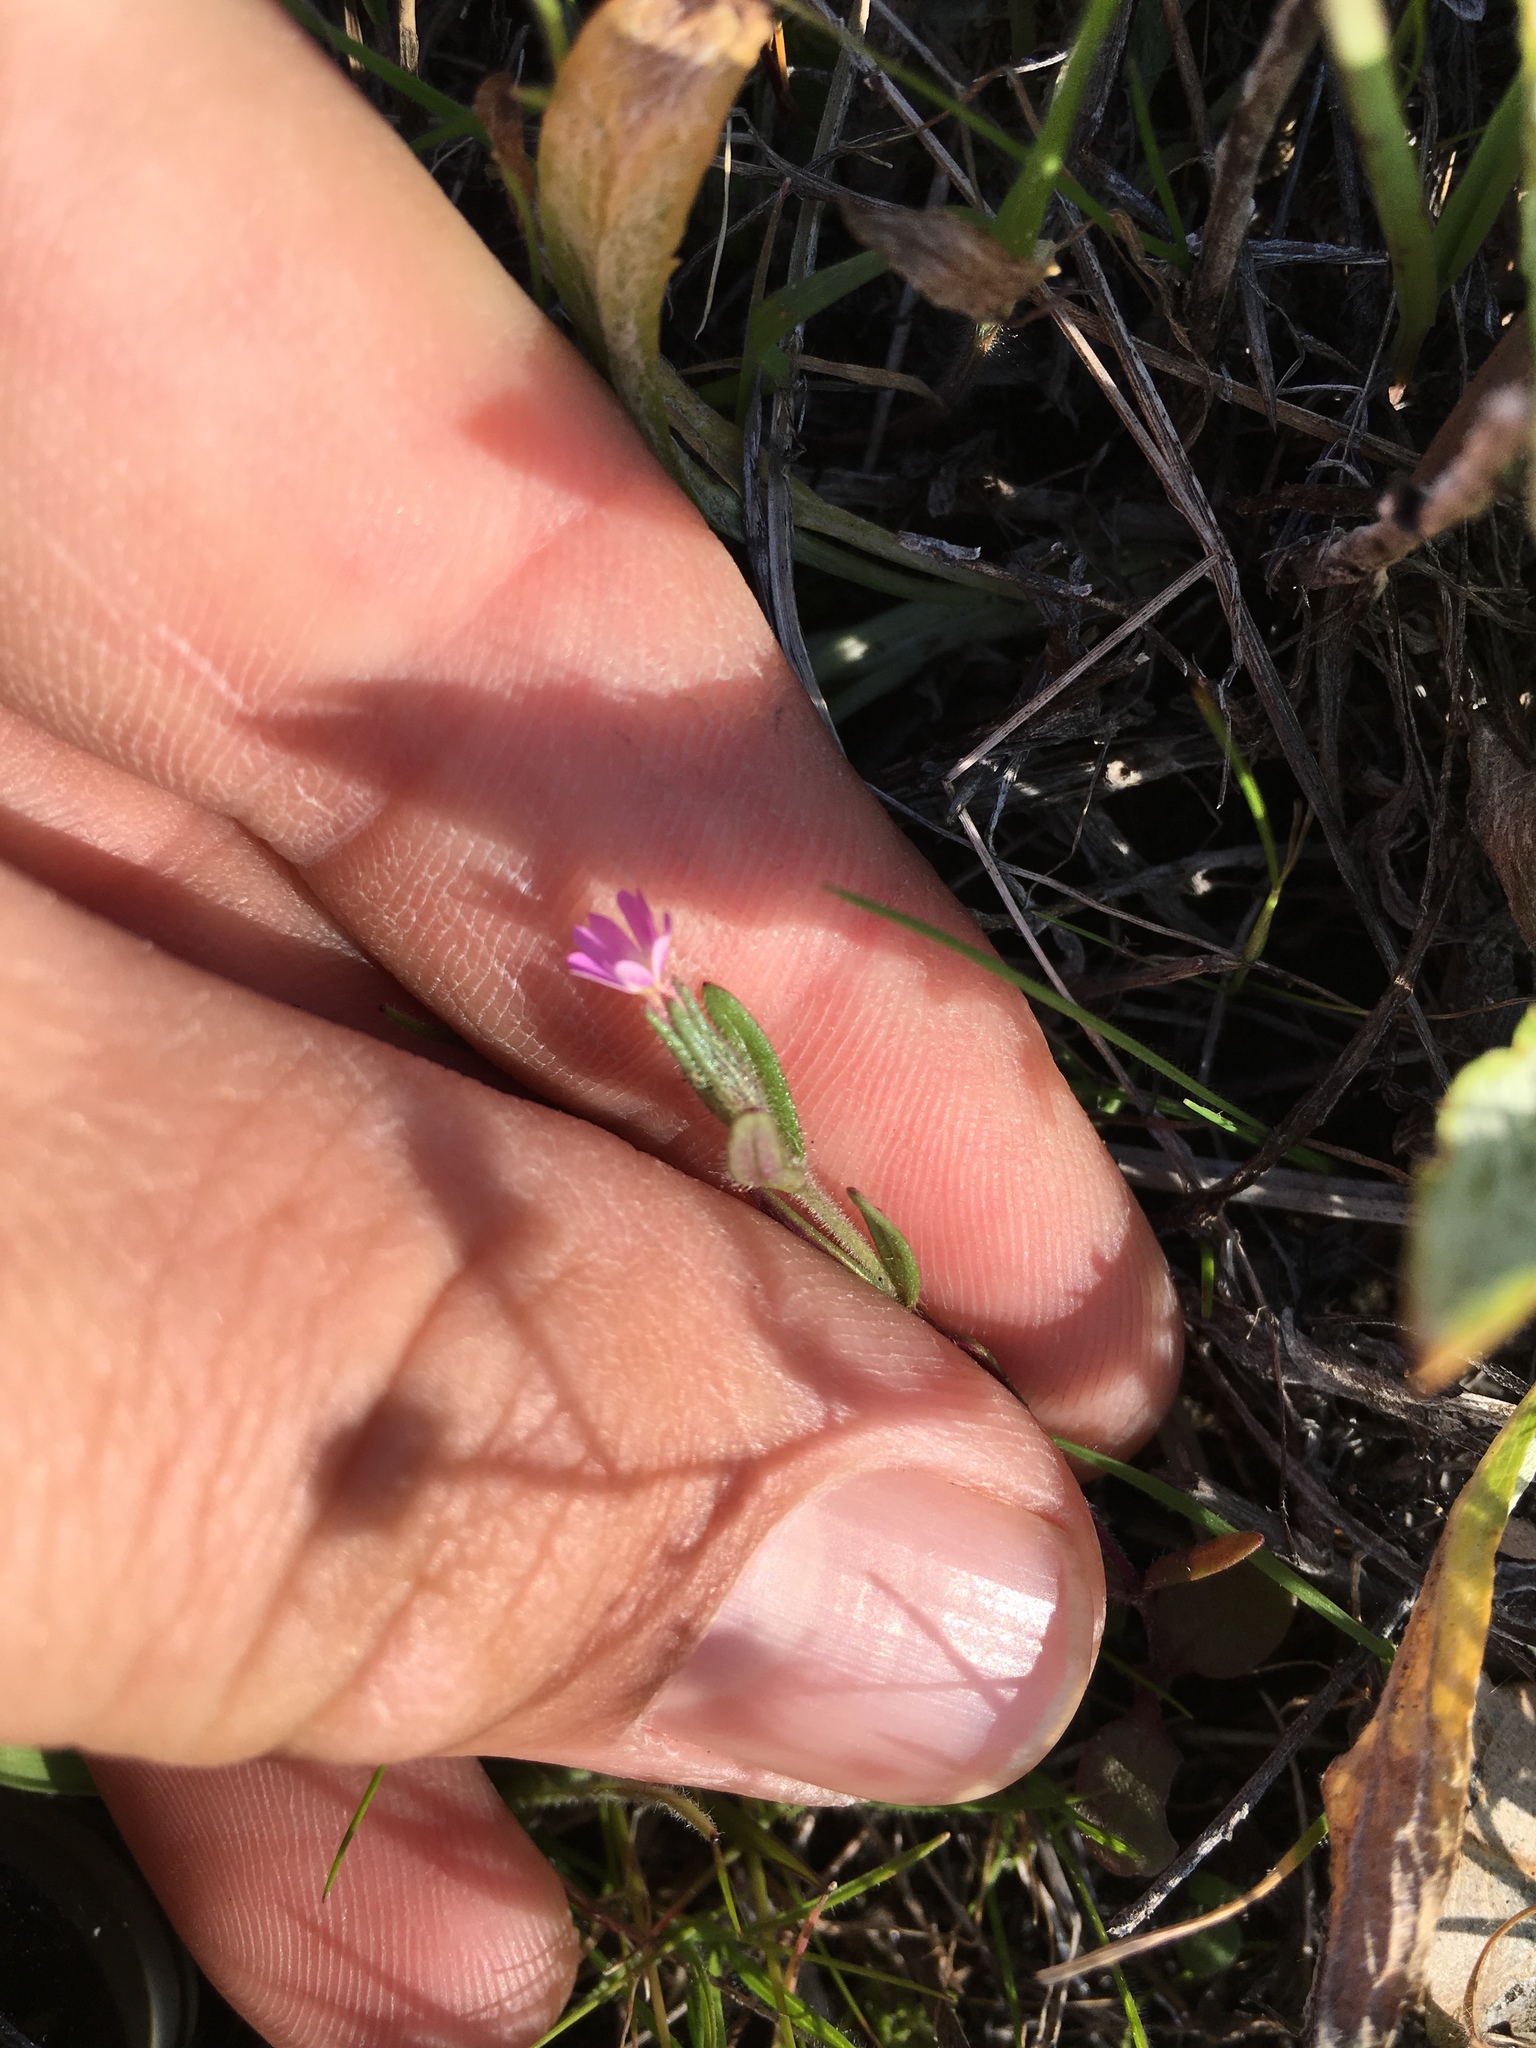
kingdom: Plantae
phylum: Tracheophyta
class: Magnoliopsida
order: Ericales
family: Polemoniaceae
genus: Phlox
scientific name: Phlox gracilis
